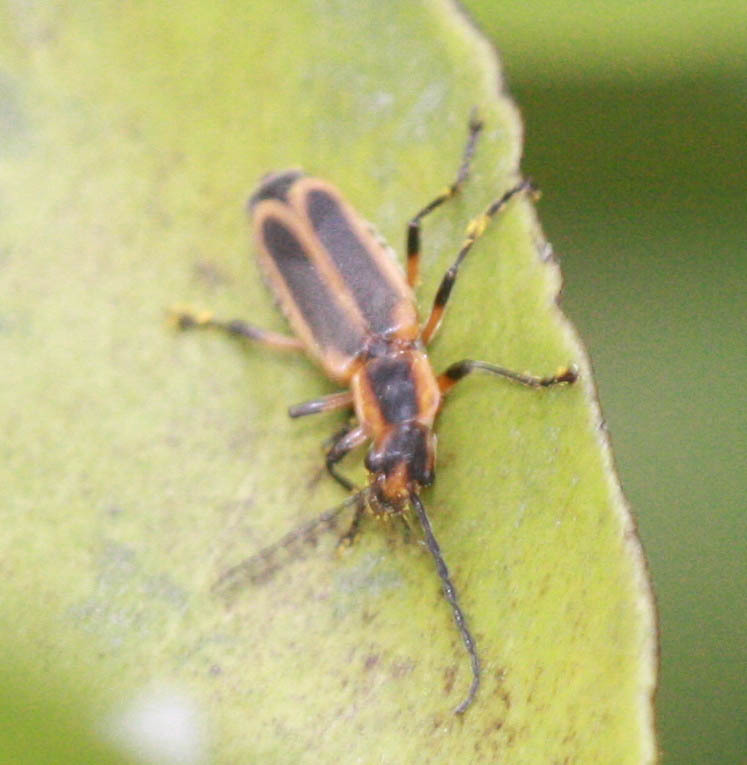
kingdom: Animalia
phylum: Arthropoda
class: Insecta
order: Coleoptera
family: Cantharidae
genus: Chauliognathus
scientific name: Chauliognathus marginatus
